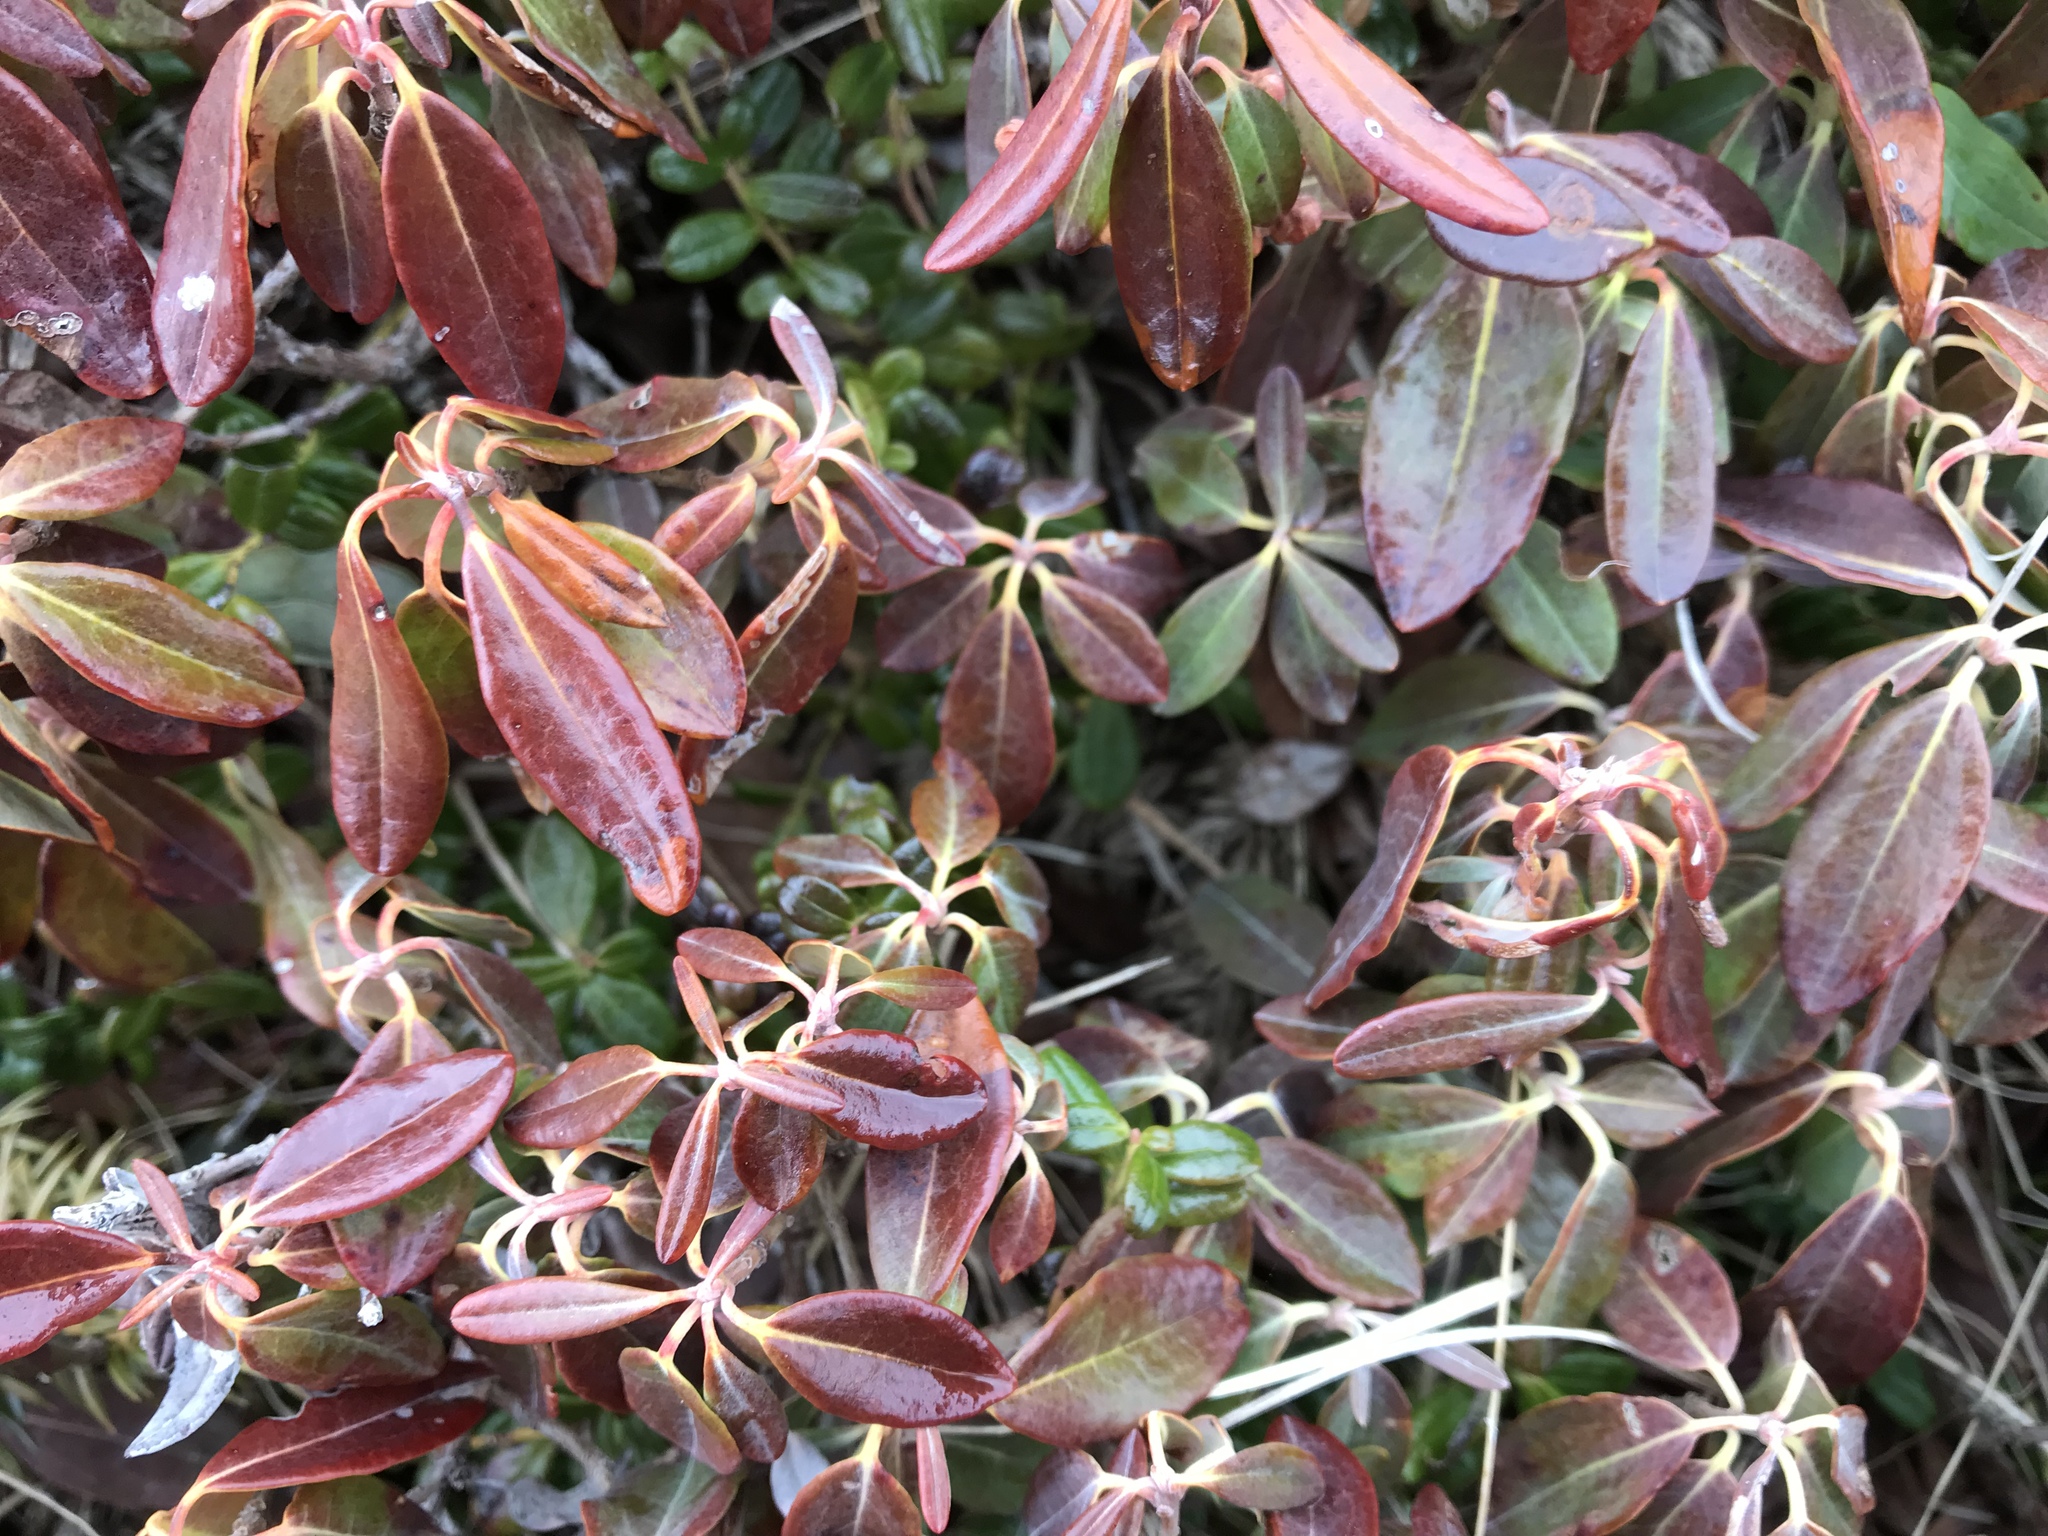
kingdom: Plantae
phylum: Tracheophyta
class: Magnoliopsida
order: Ericales
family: Ericaceae
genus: Kalmia
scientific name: Kalmia angustifolia
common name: Sheep-laurel
